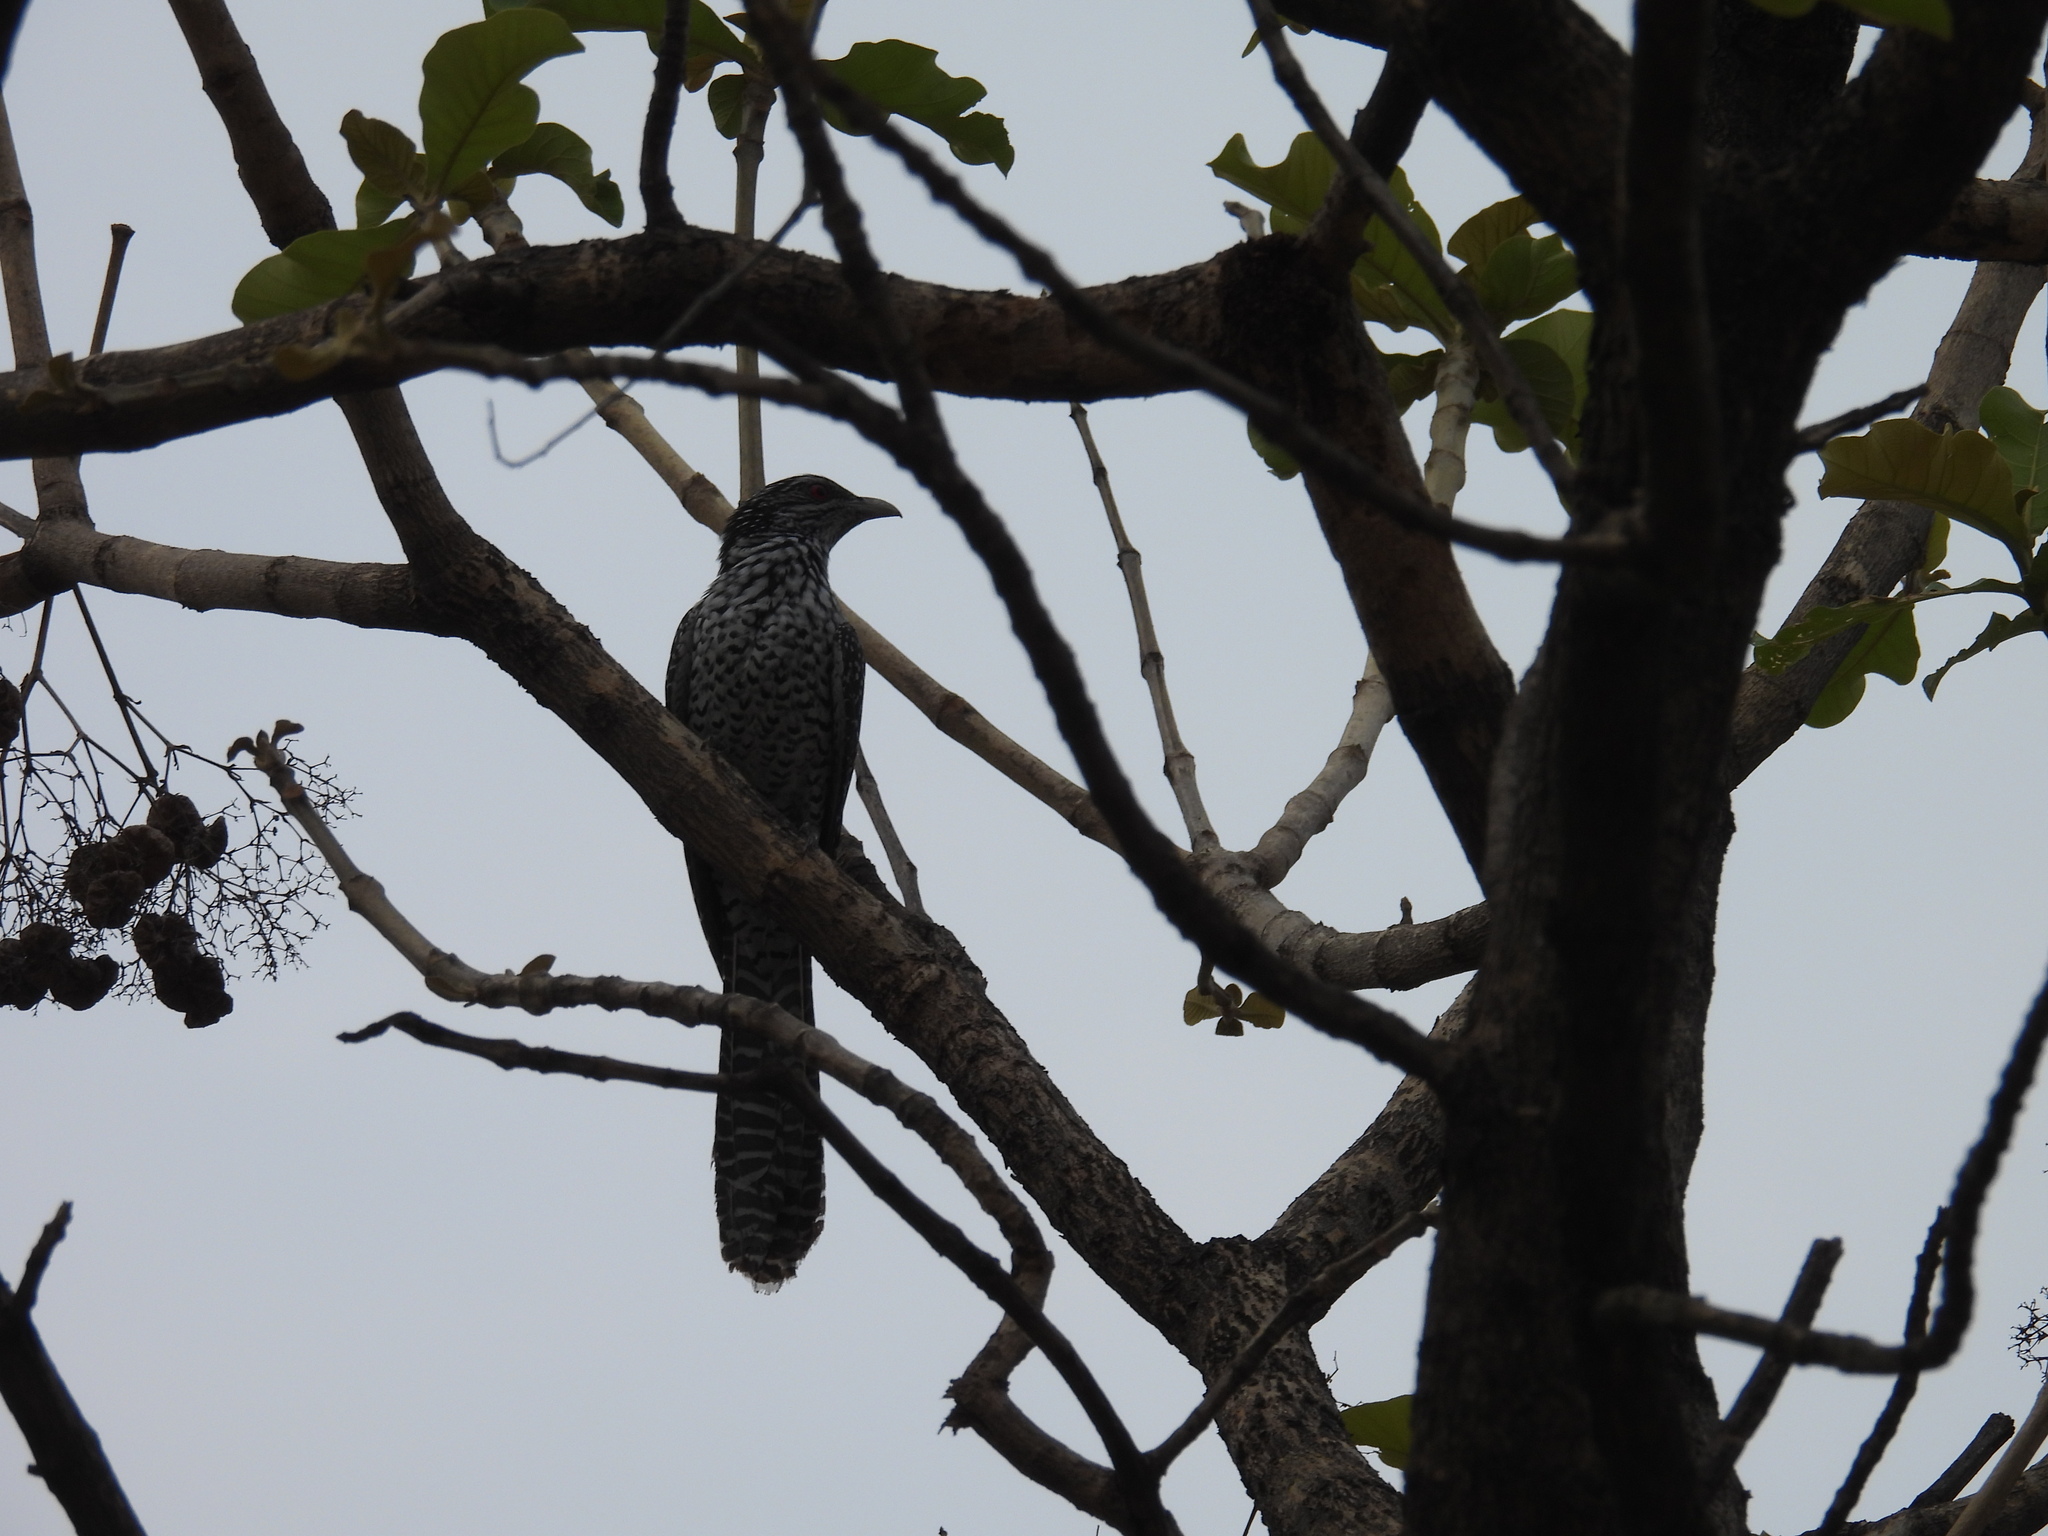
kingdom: Animalia
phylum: Chordata
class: Aves
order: Cuculiformes
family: Cuculidae
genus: Eudynamys
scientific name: Eudynamys scolopaceus
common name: Asian koel
